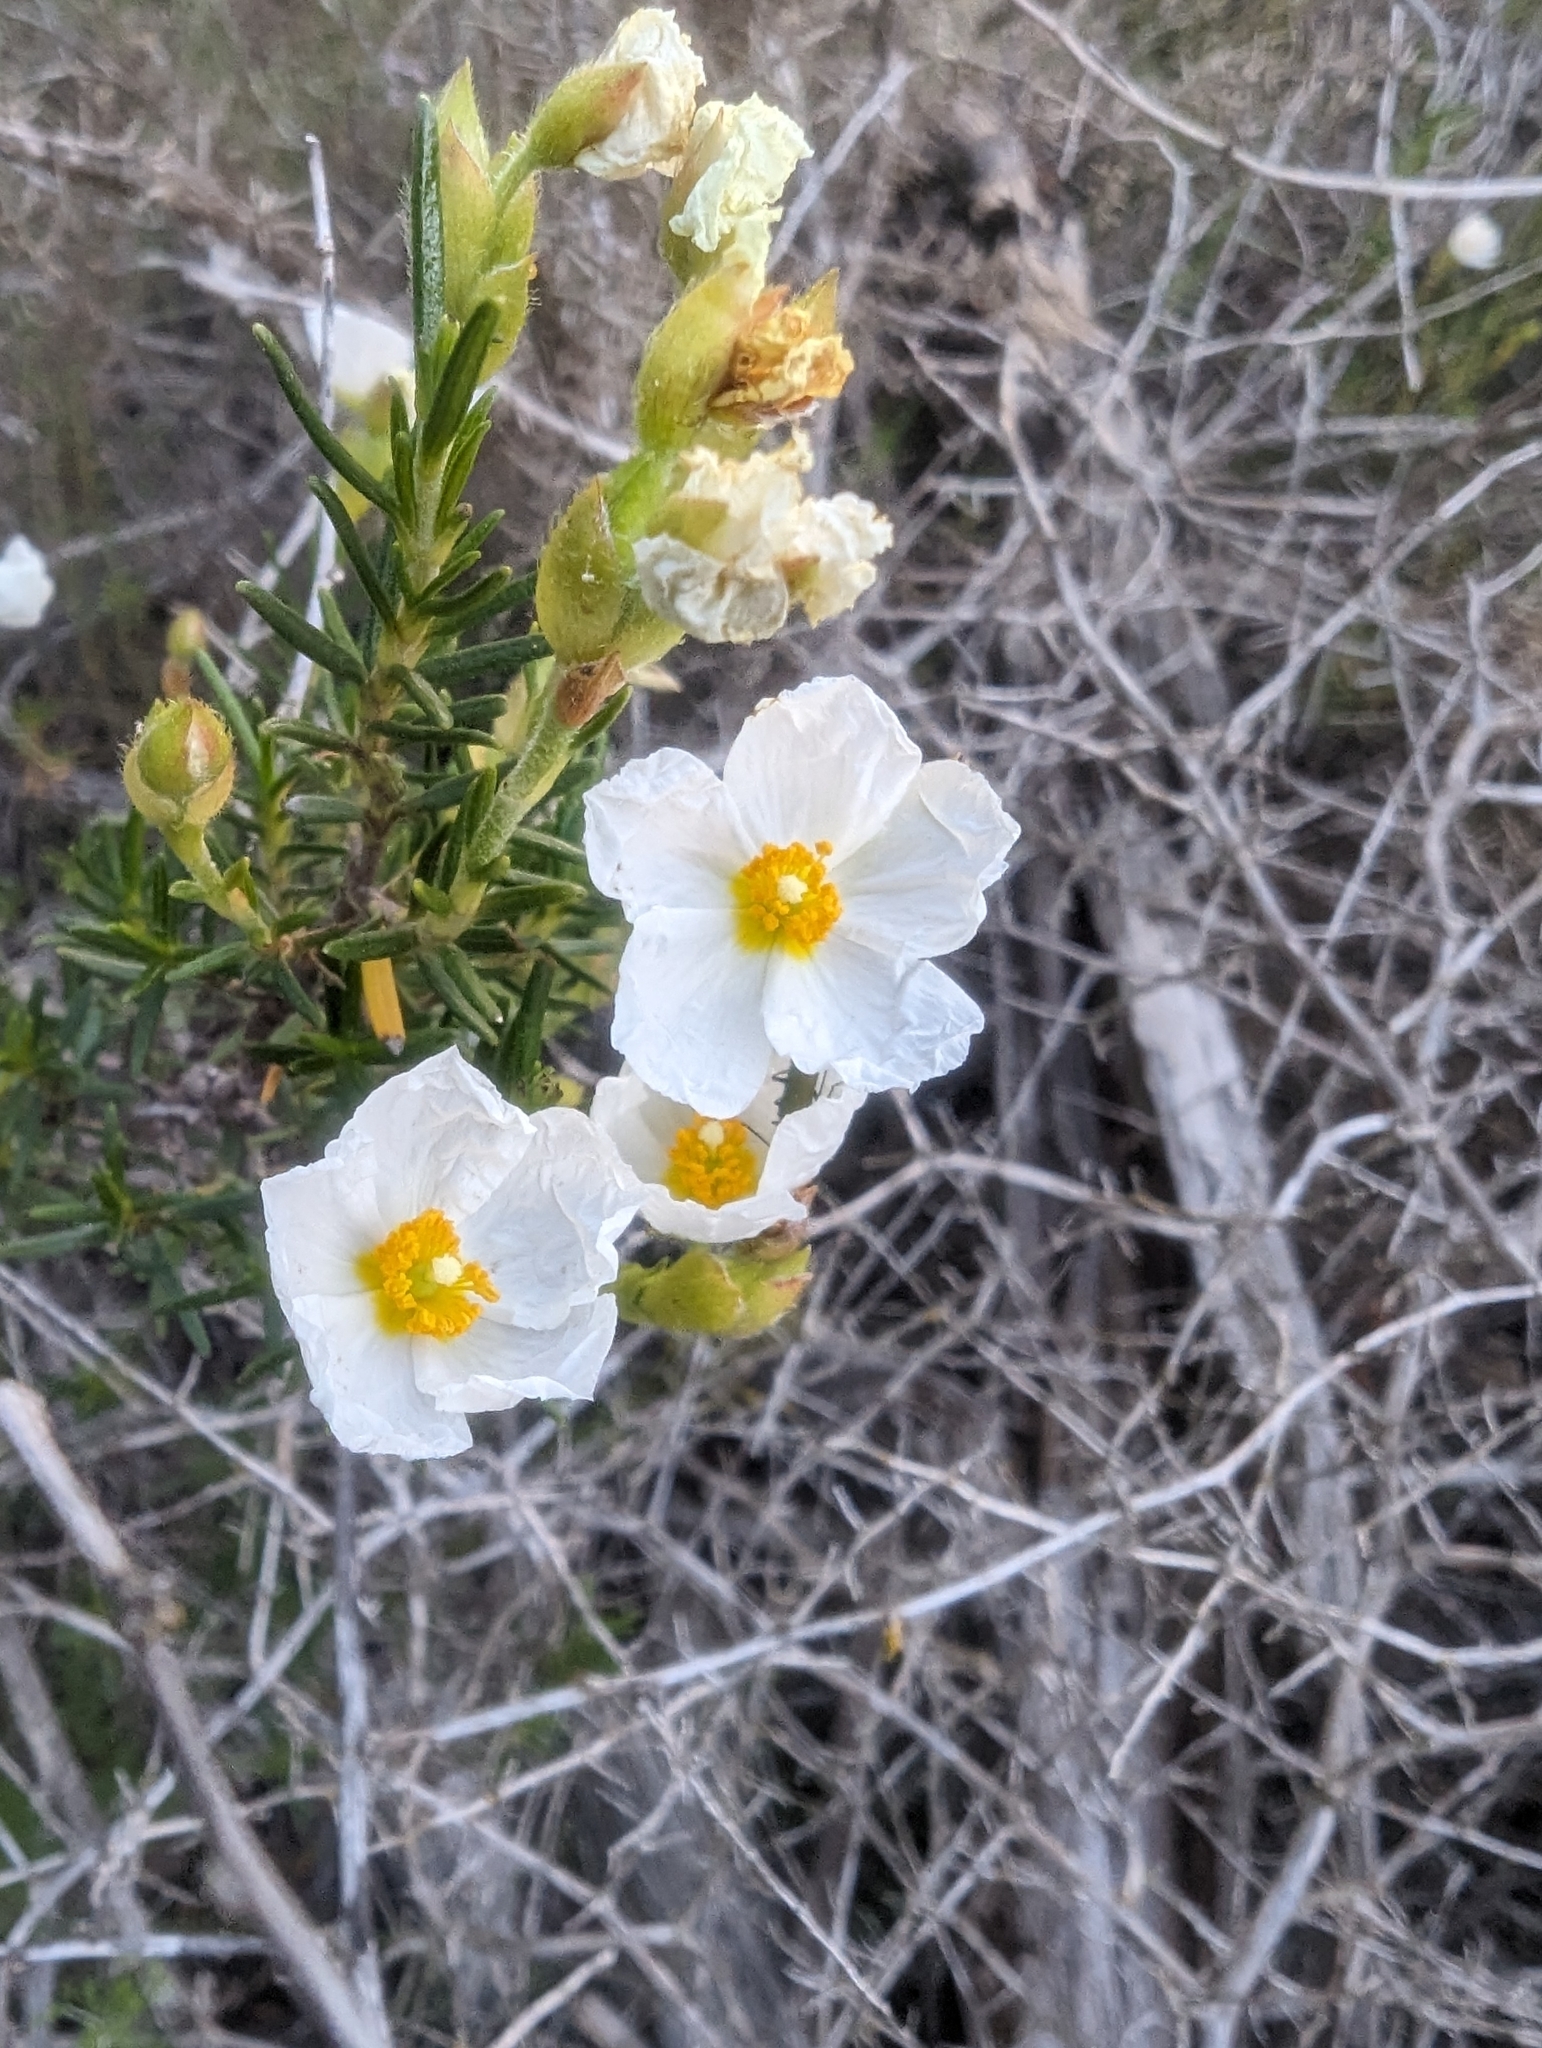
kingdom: Plantae
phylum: Tracheophyta
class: Magnoliopsida
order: Malvales
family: Cistaceae
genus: Cistus
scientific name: Cistus clusii
